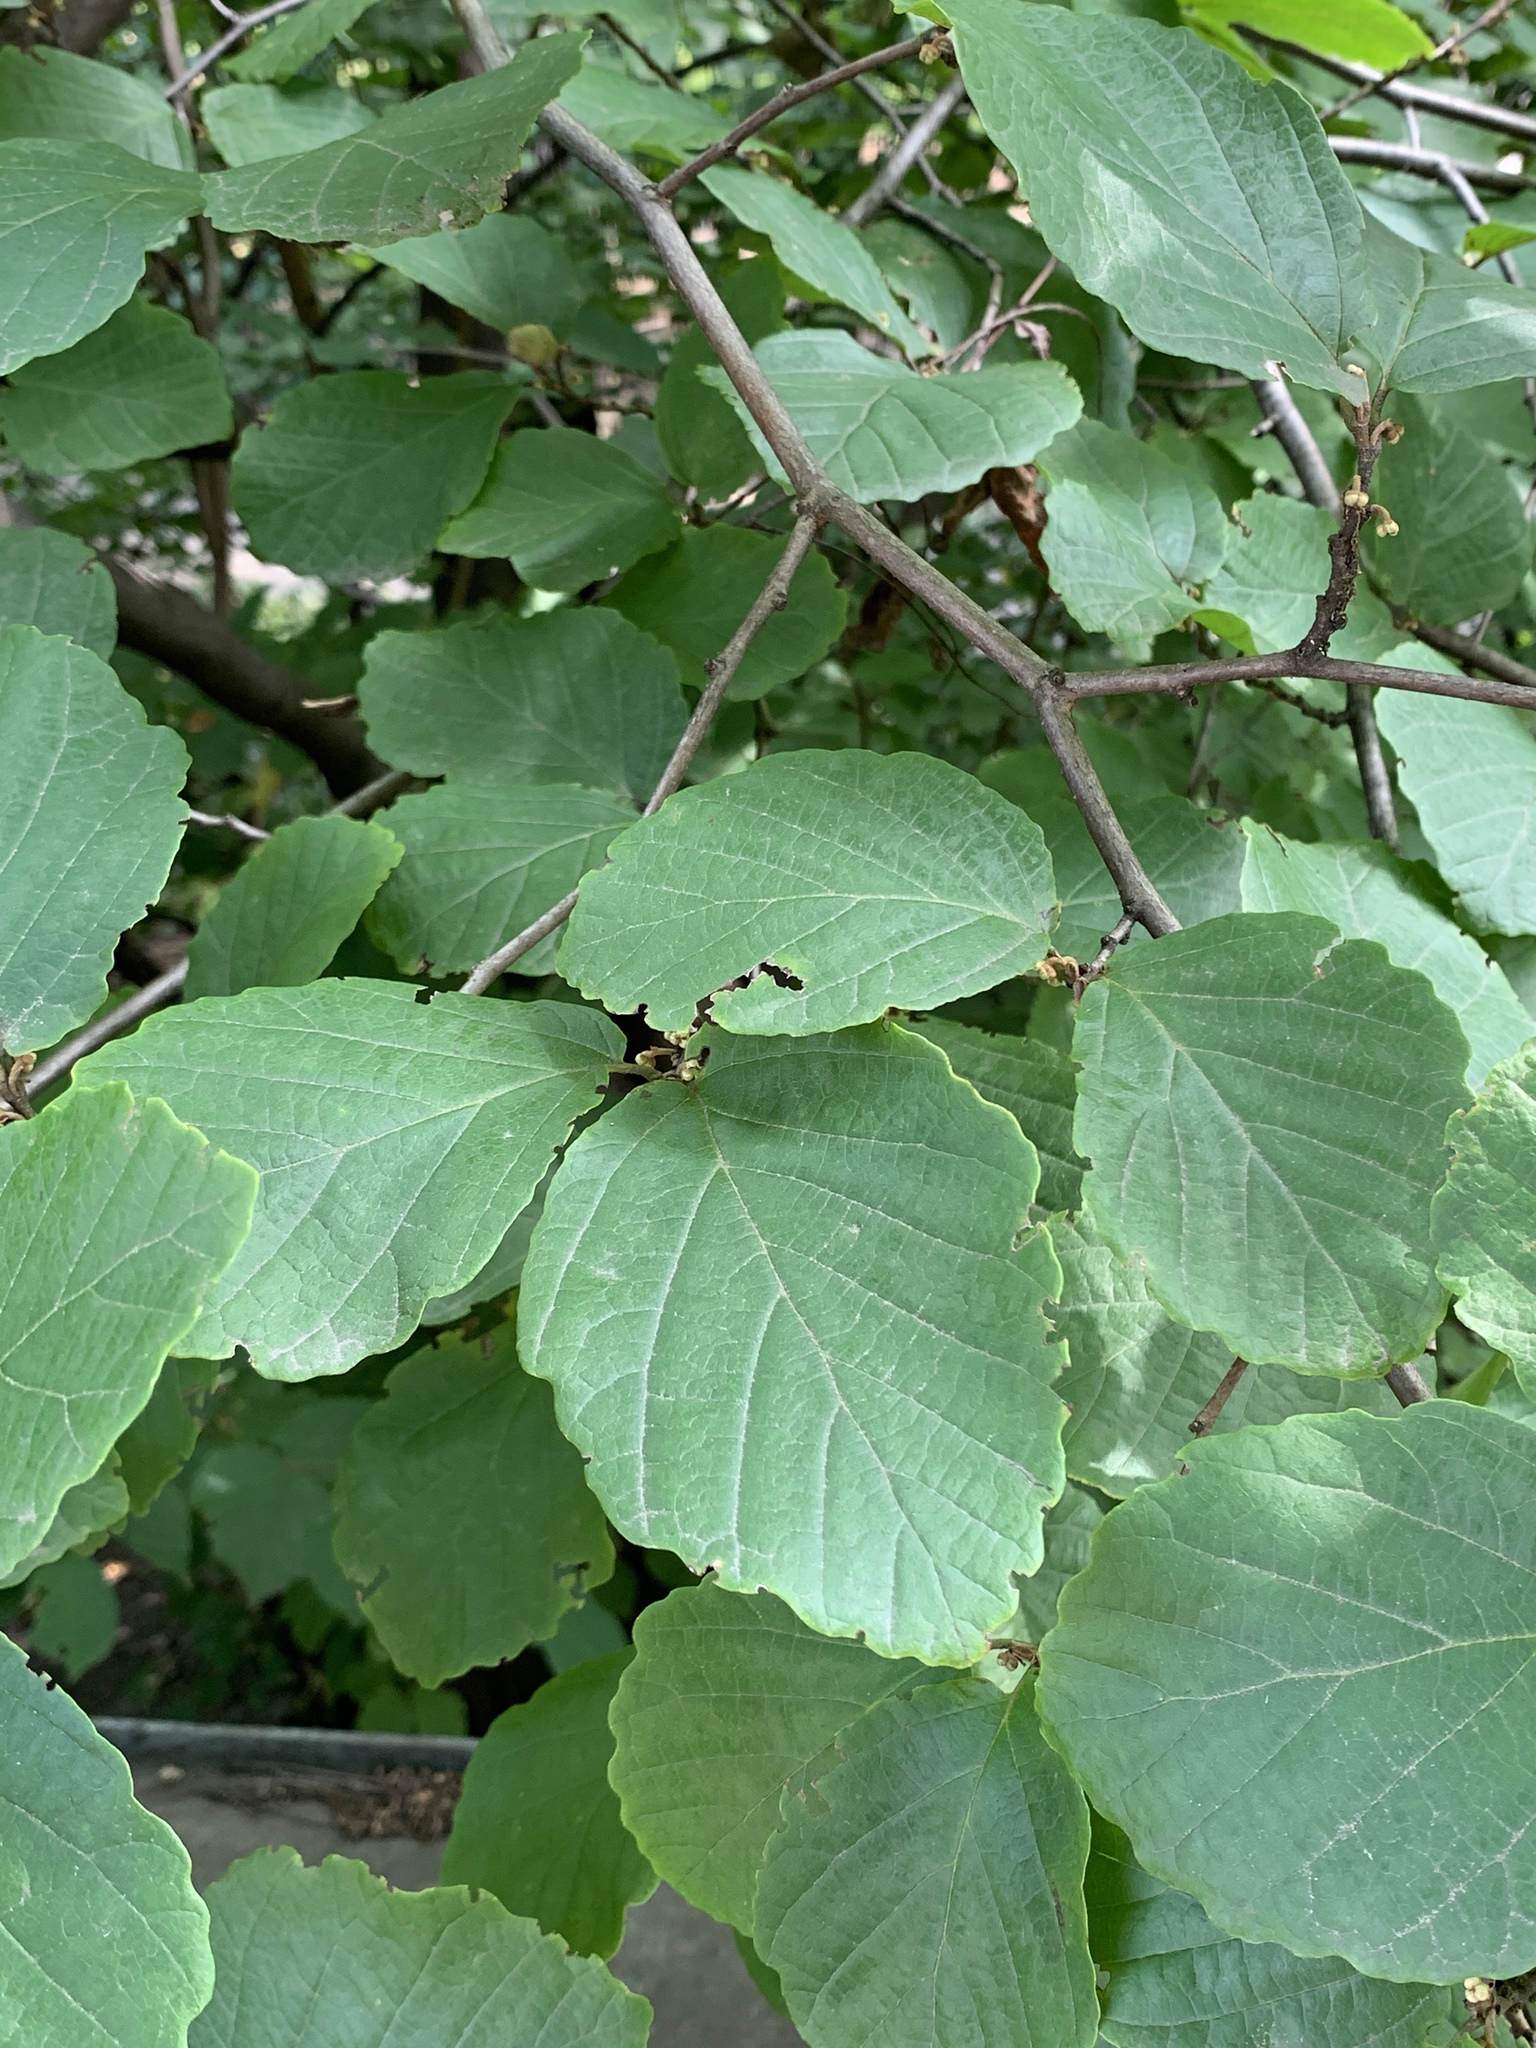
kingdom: Plantae
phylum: Tracheophyta
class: Magnoliopsida
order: Saxifragales
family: Hamamelidaceae
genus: Hamamelis
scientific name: Hamamelis virginiana
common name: Witch-hazel
